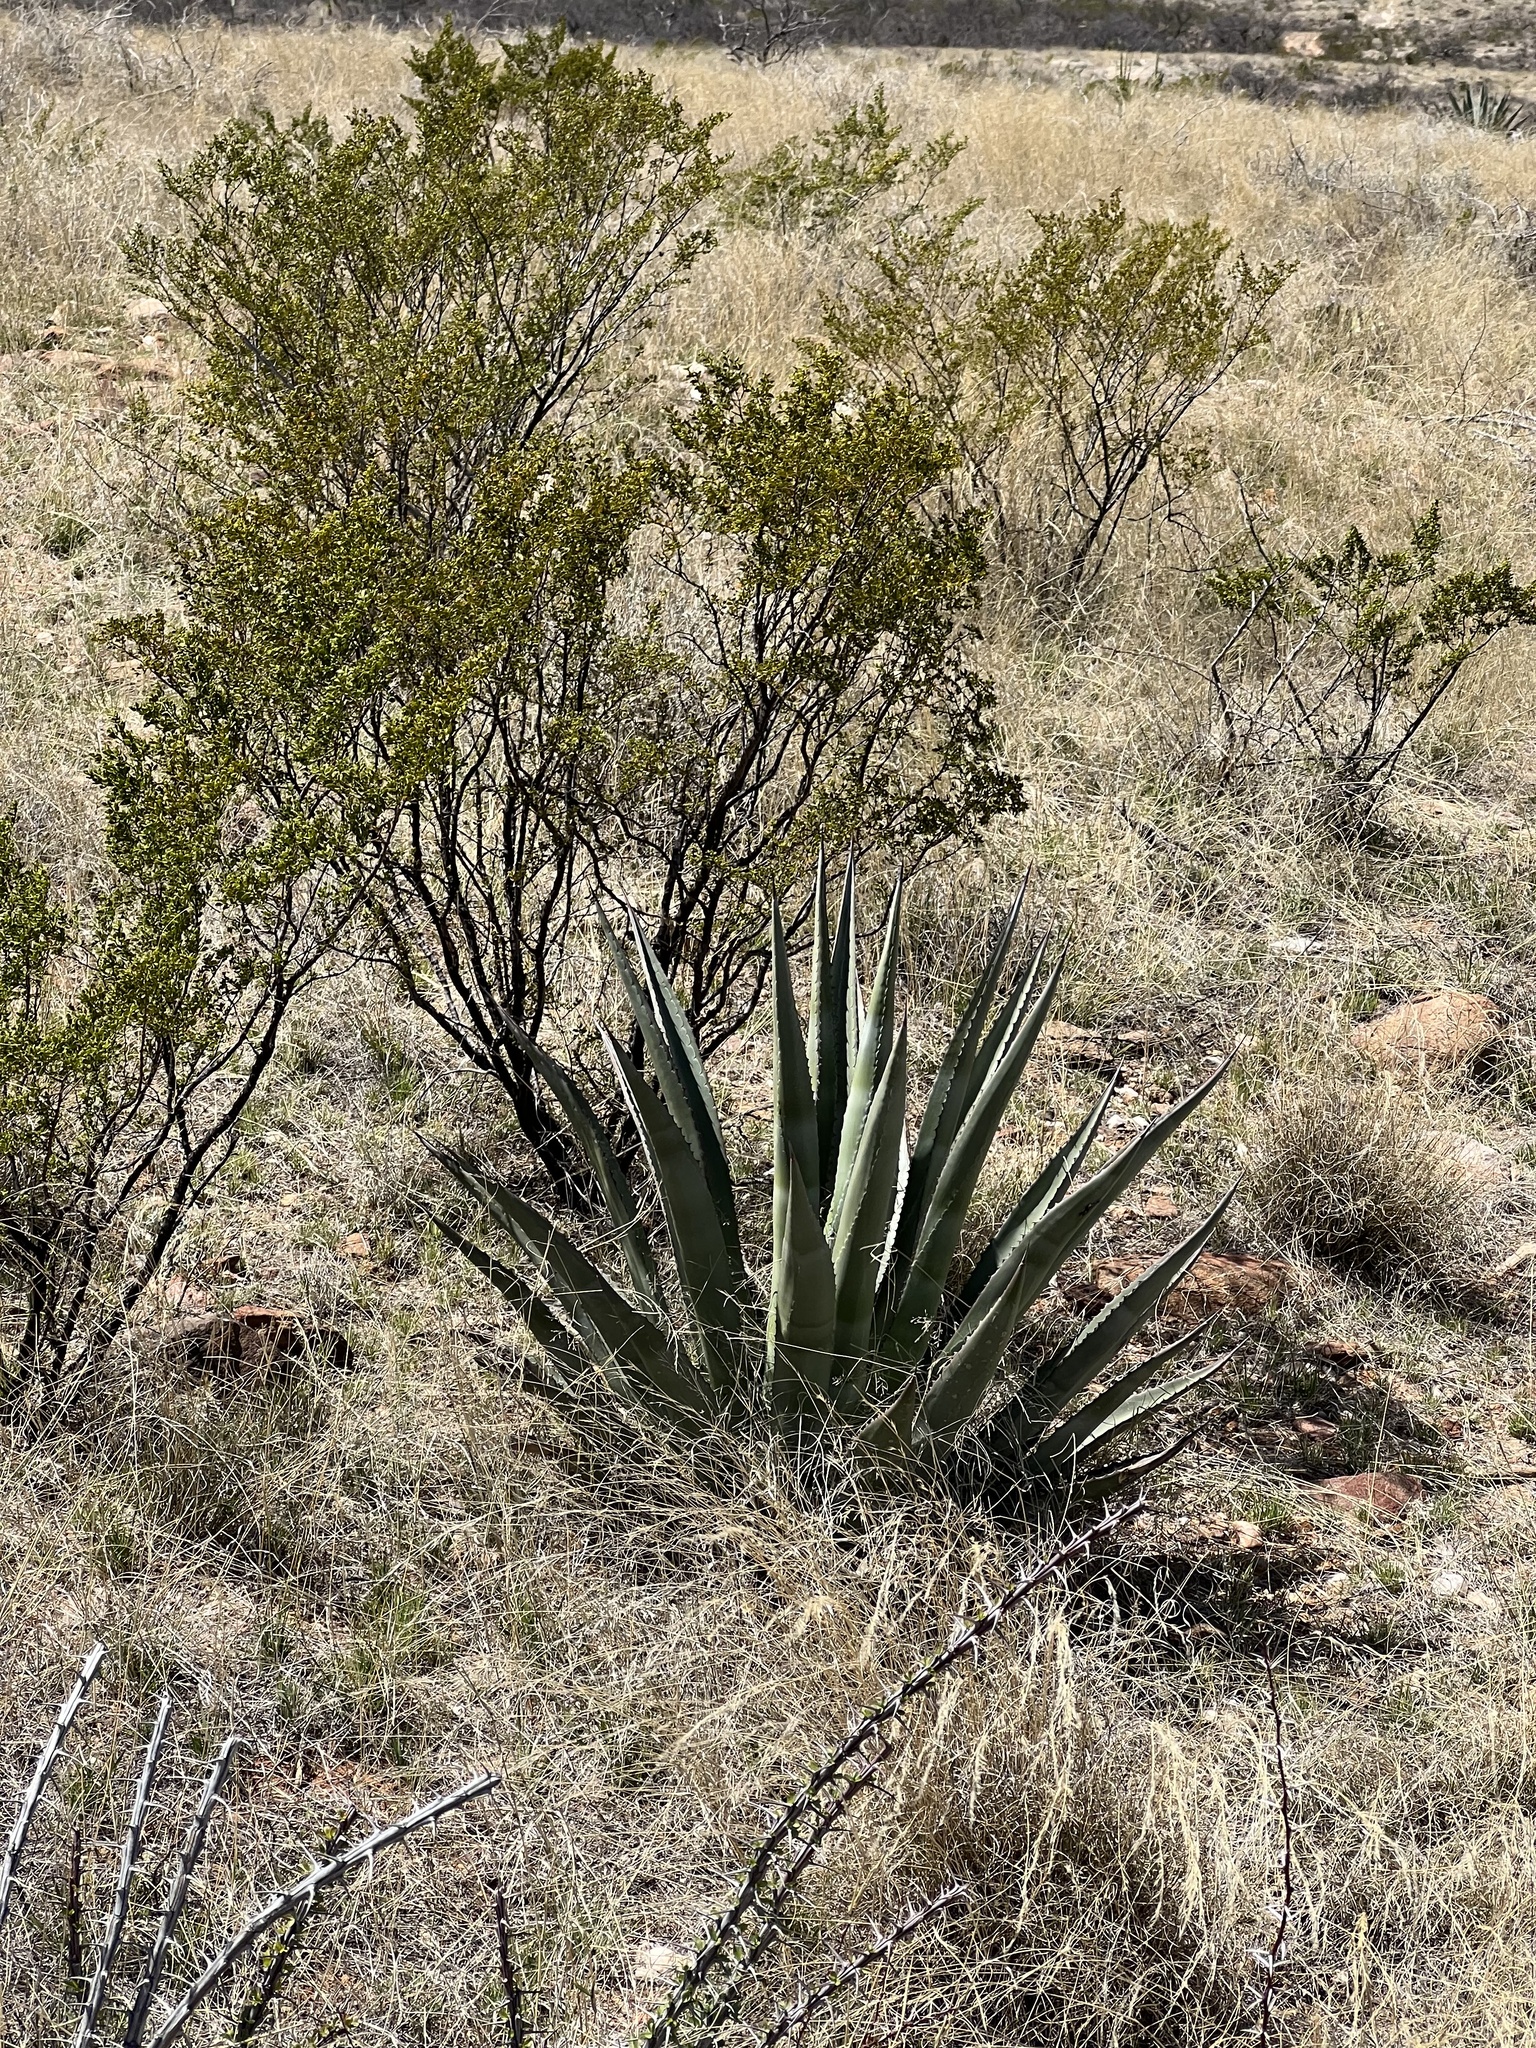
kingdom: Plantae
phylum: Tracheophyta
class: Liliopsida
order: Asparagales
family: Asparagaceae
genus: Agave
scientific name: Agave palmeri
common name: Palmer agave
